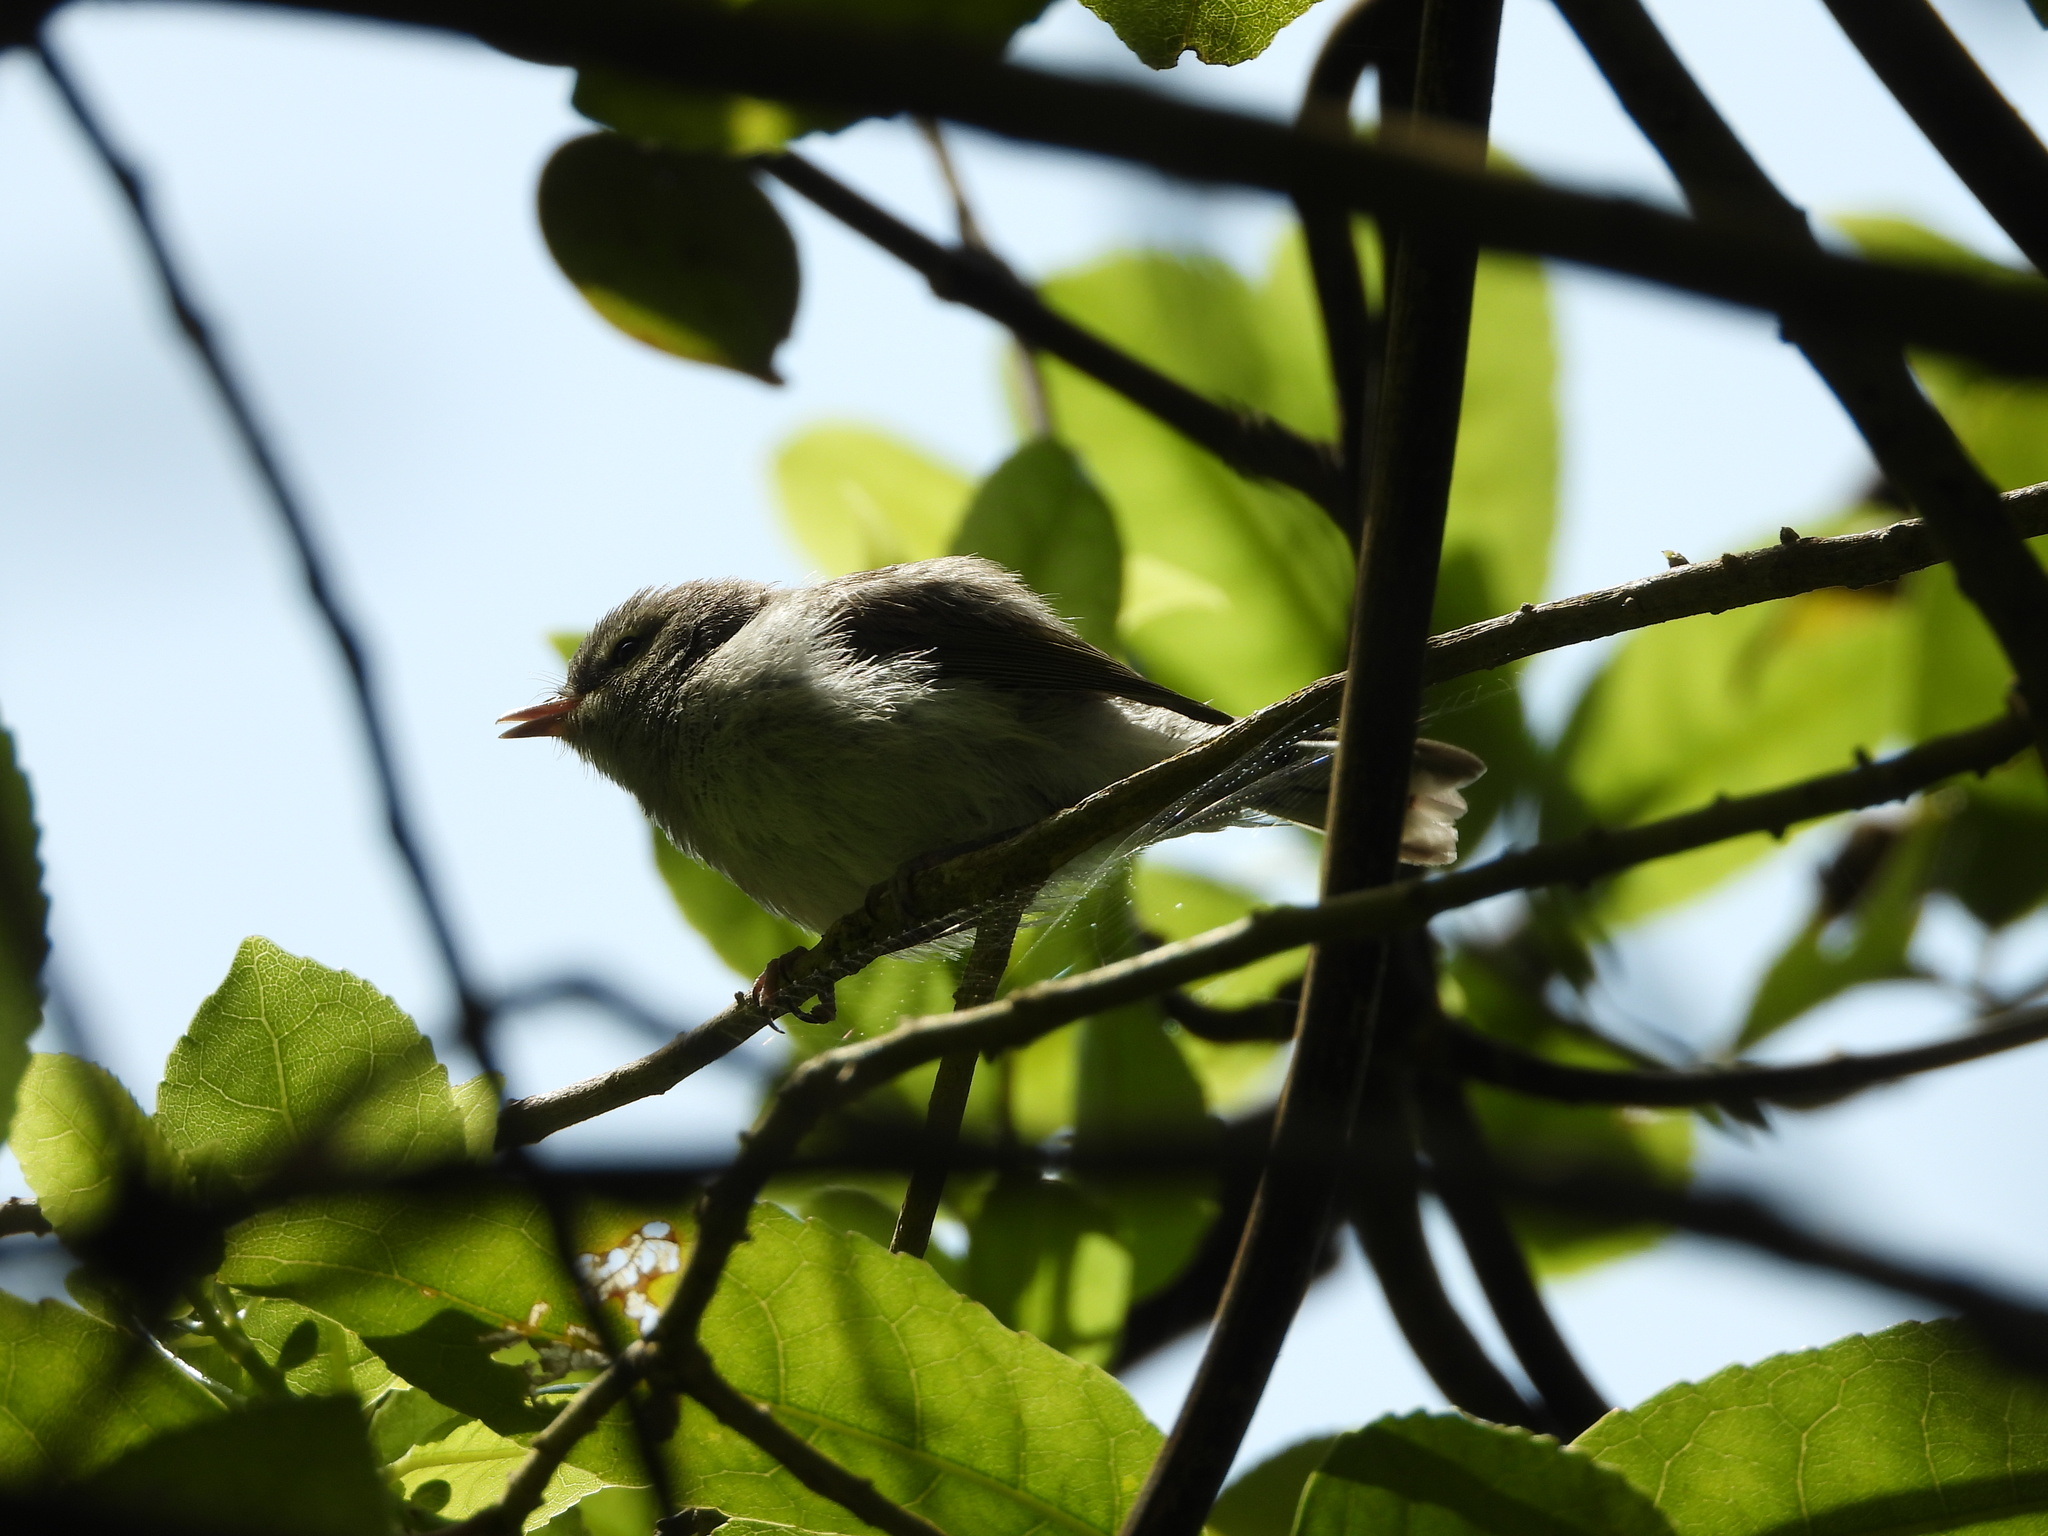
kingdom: Animalia
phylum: Chordata
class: Aves
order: Passeriformes
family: Acanthizidae
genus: Gerygone
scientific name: Gerygone igata
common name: Grey gerygone
